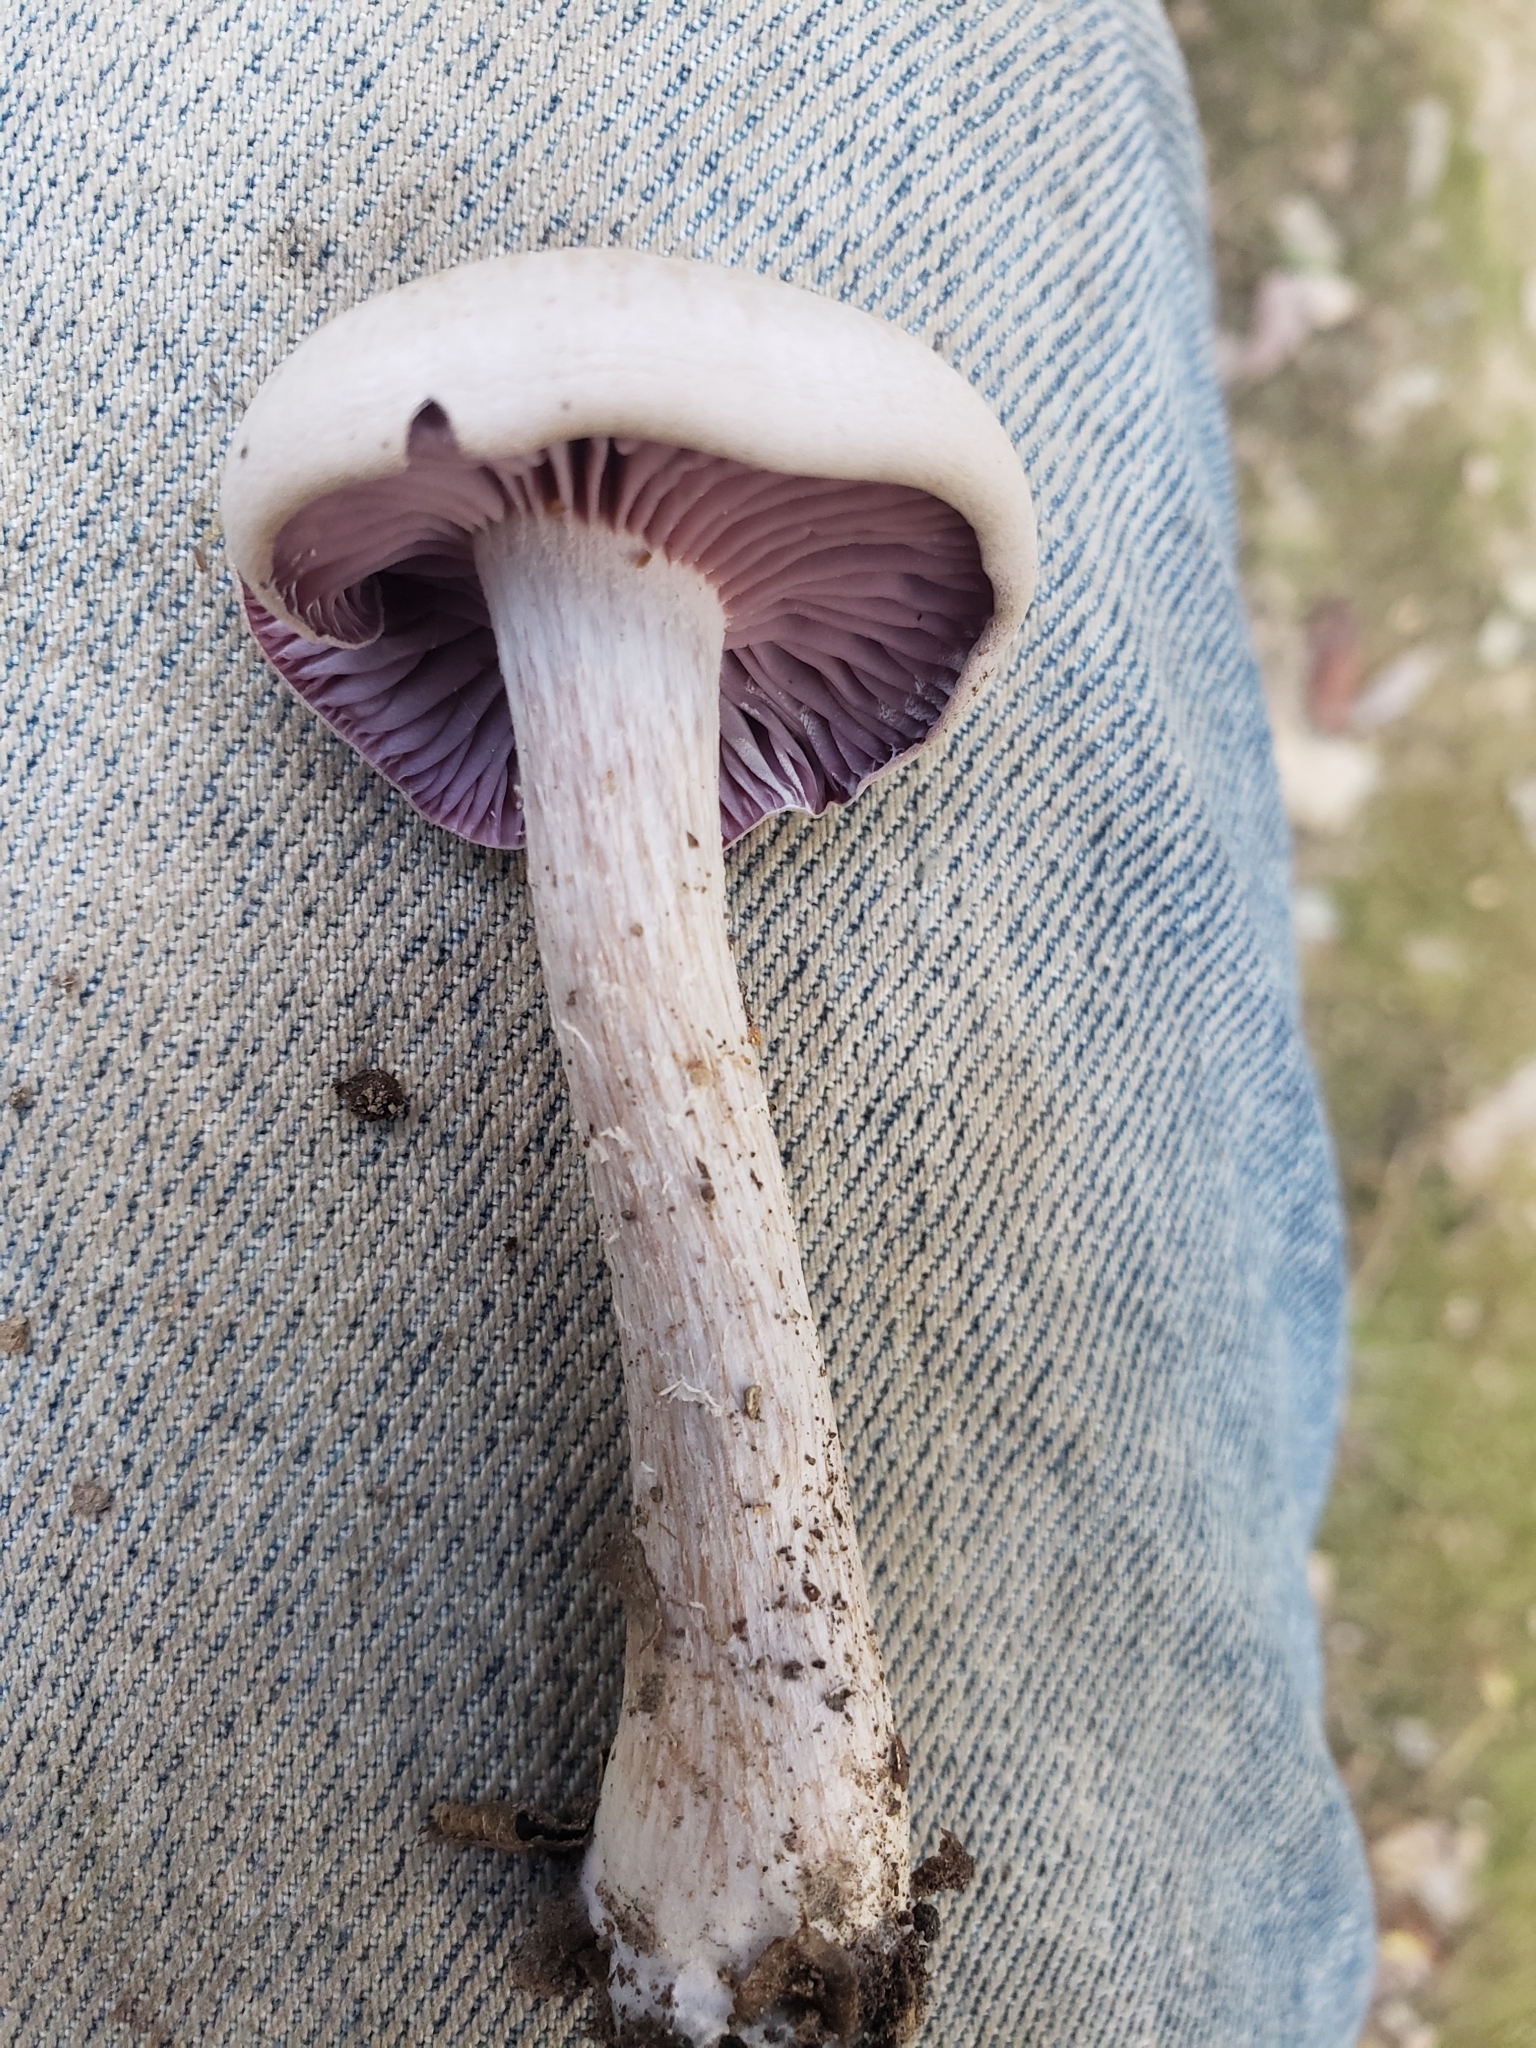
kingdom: Fungi
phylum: Basidiomycota
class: Agaricomycetes
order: Agaricales
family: Hydnangiaceae
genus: Laccaria
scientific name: Laccaria ochropurpurea
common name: Purple laccaria
